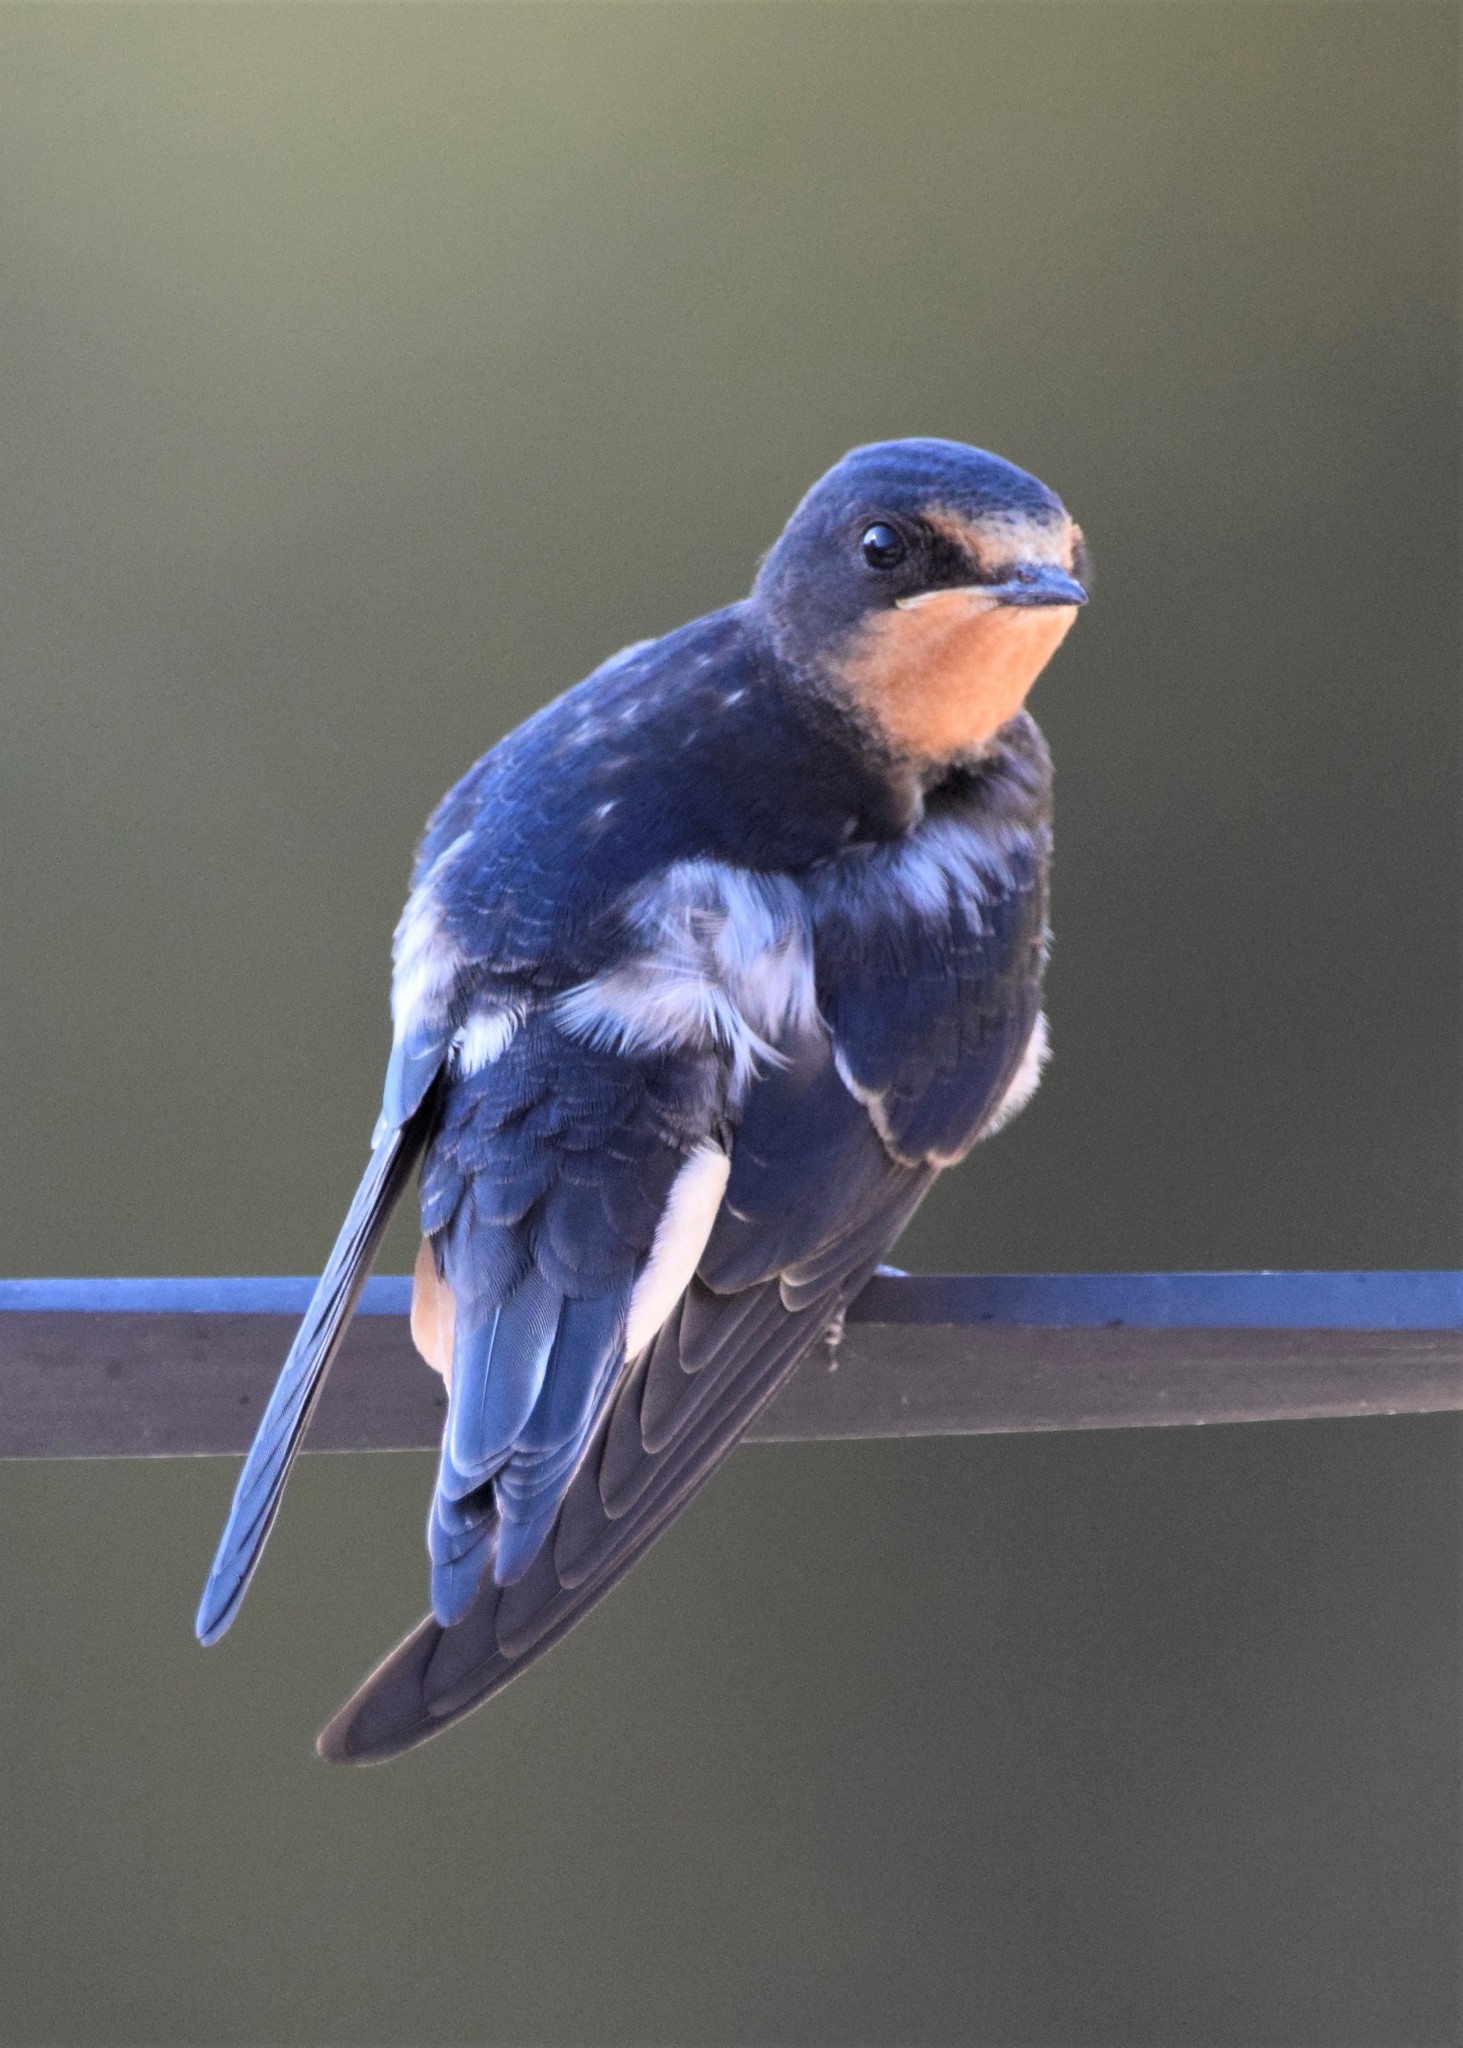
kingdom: Animalia
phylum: Chordata
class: Aves
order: Passeriformes
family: Hirundinidae
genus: Hirundo
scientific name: Hirundo rustica
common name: Barn swallow
